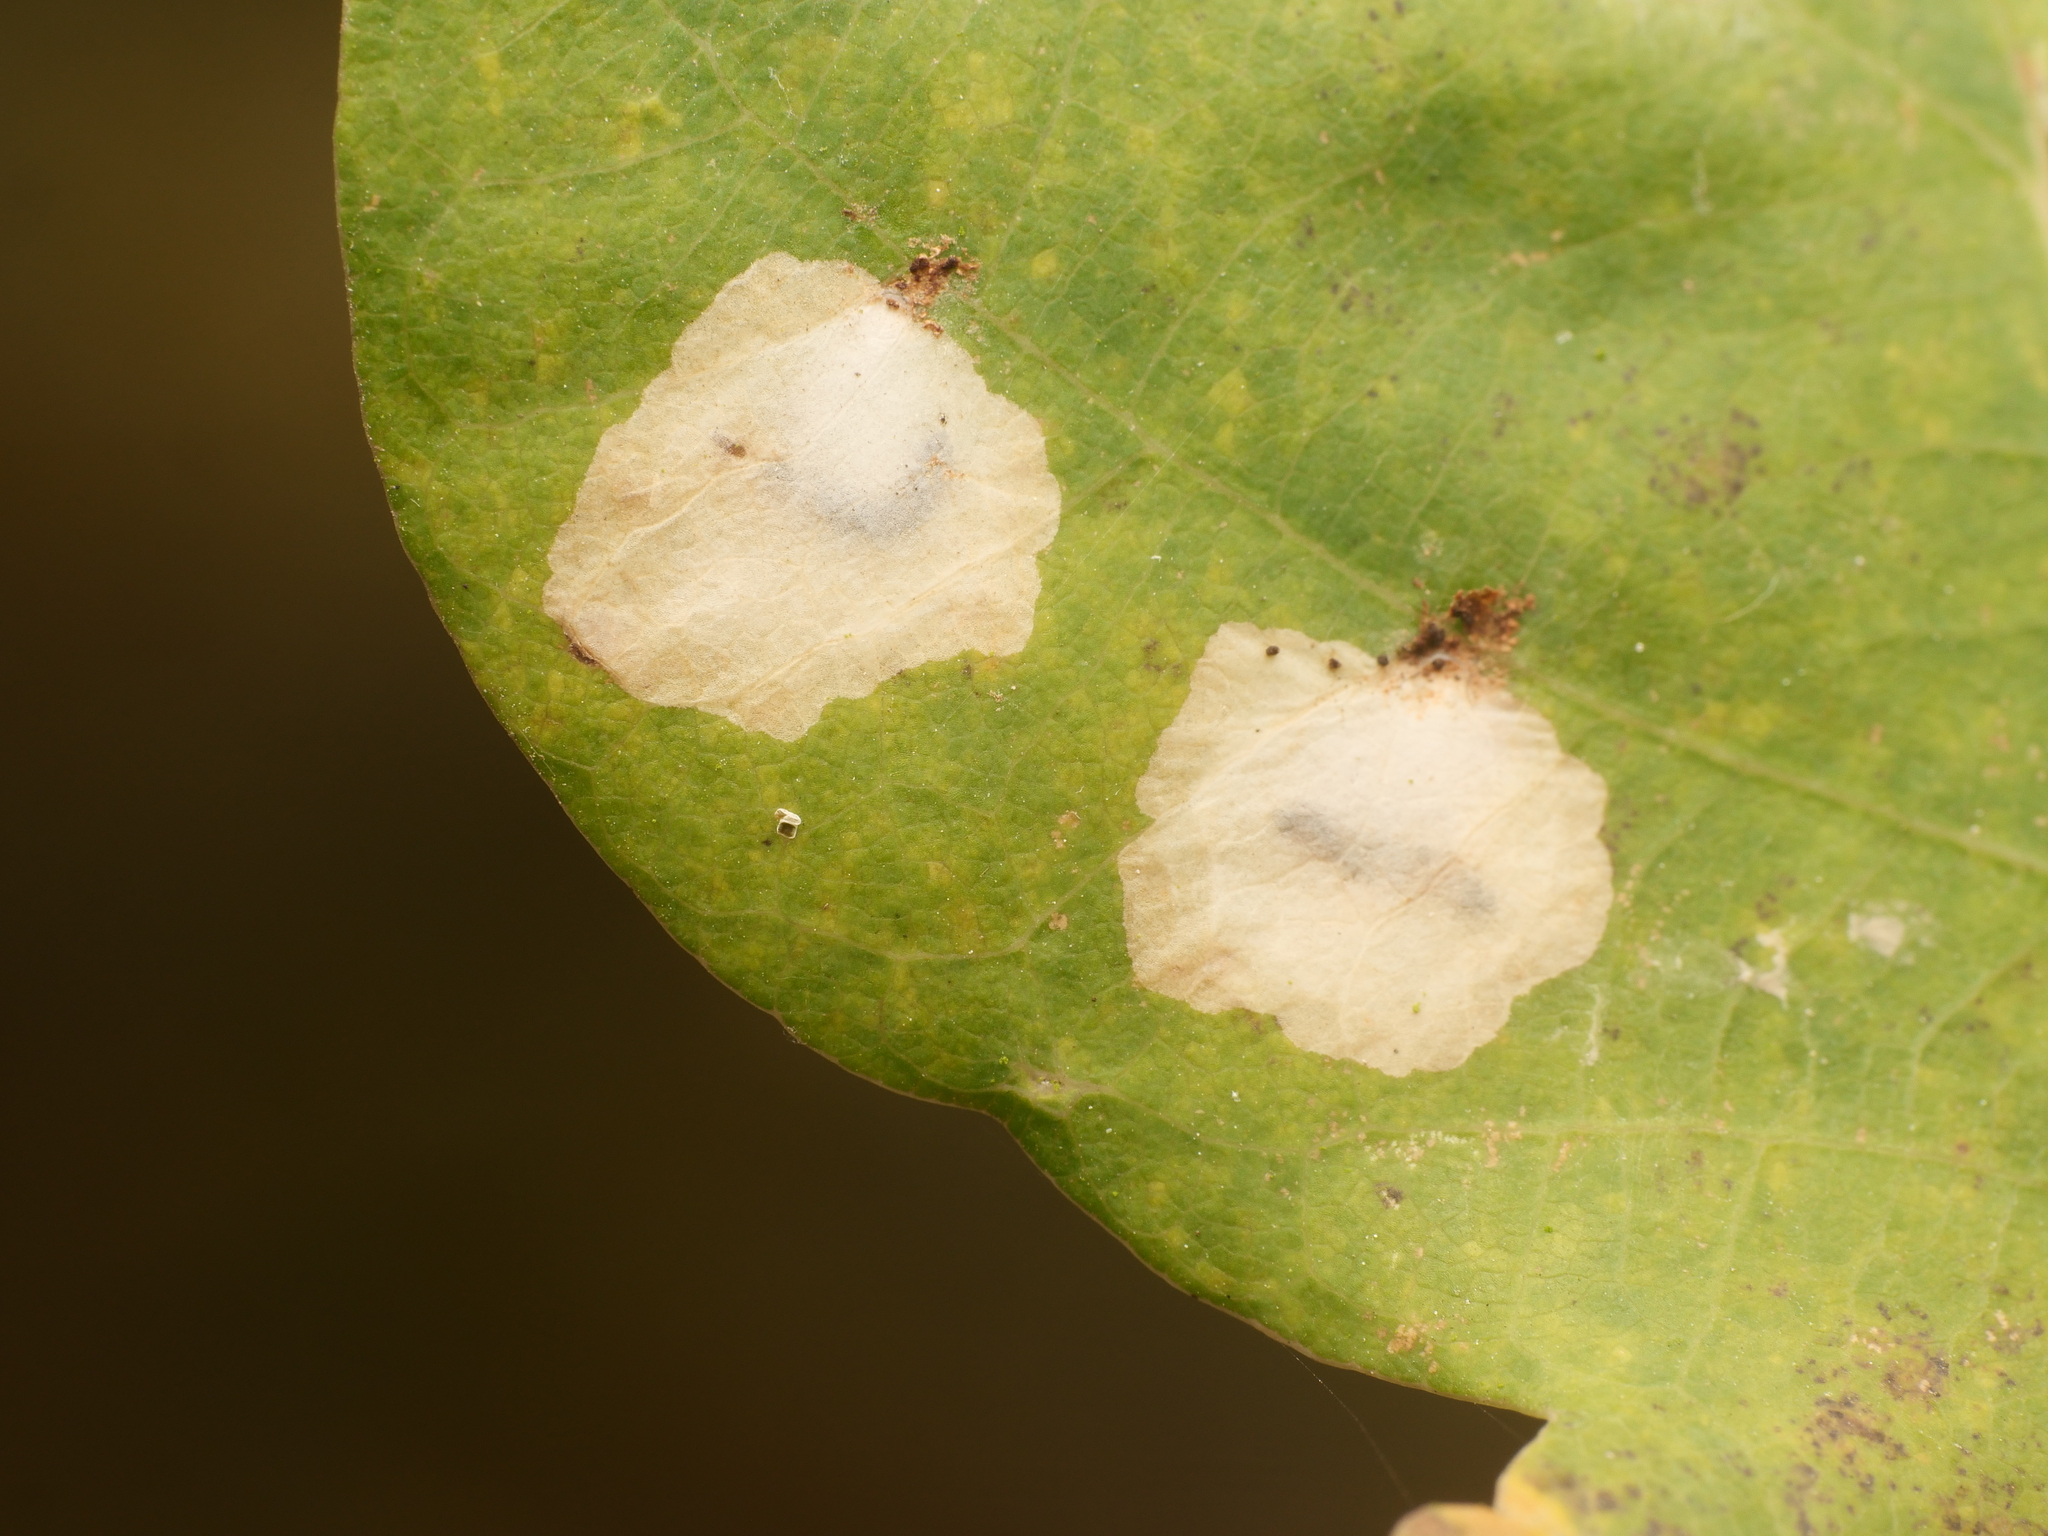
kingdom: Animalia
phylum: Arthropoda
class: Insecta
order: Lepidoptera
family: Tischeriidae
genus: Tischeria
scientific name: Tischeria ekebladella
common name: Oak carl
